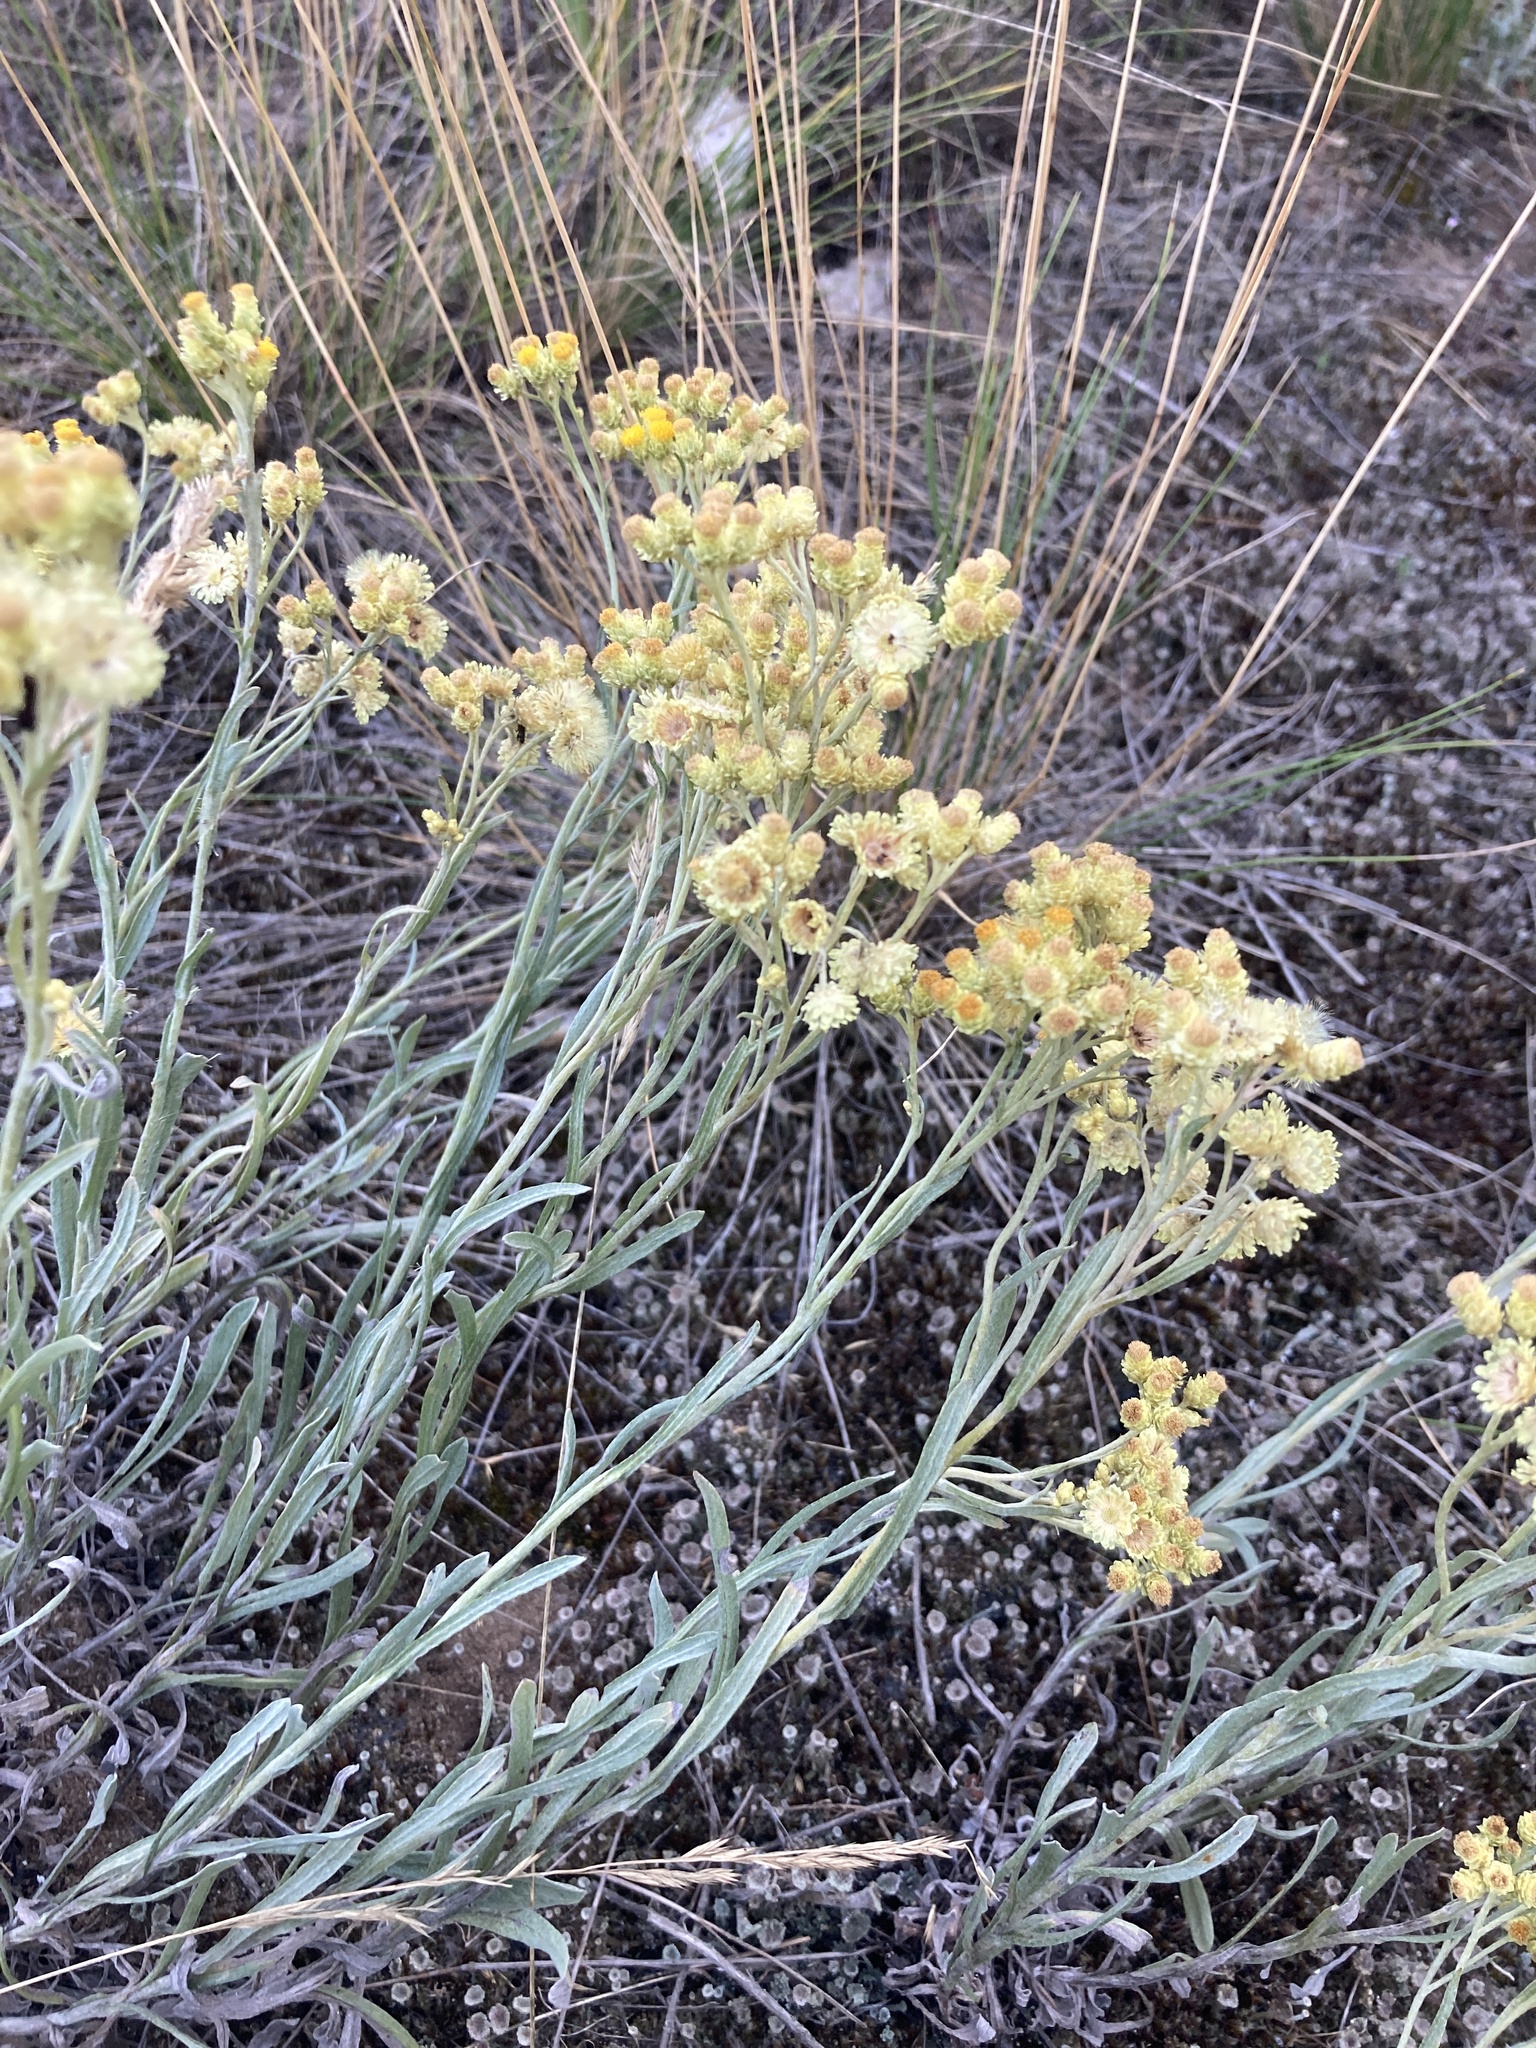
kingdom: Plantae
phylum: Tracheophyta
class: Magnoliopsida
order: Asterales
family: Asteraceae
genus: Helichrysum
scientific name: Helichrysum arenarium
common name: Strawflower
